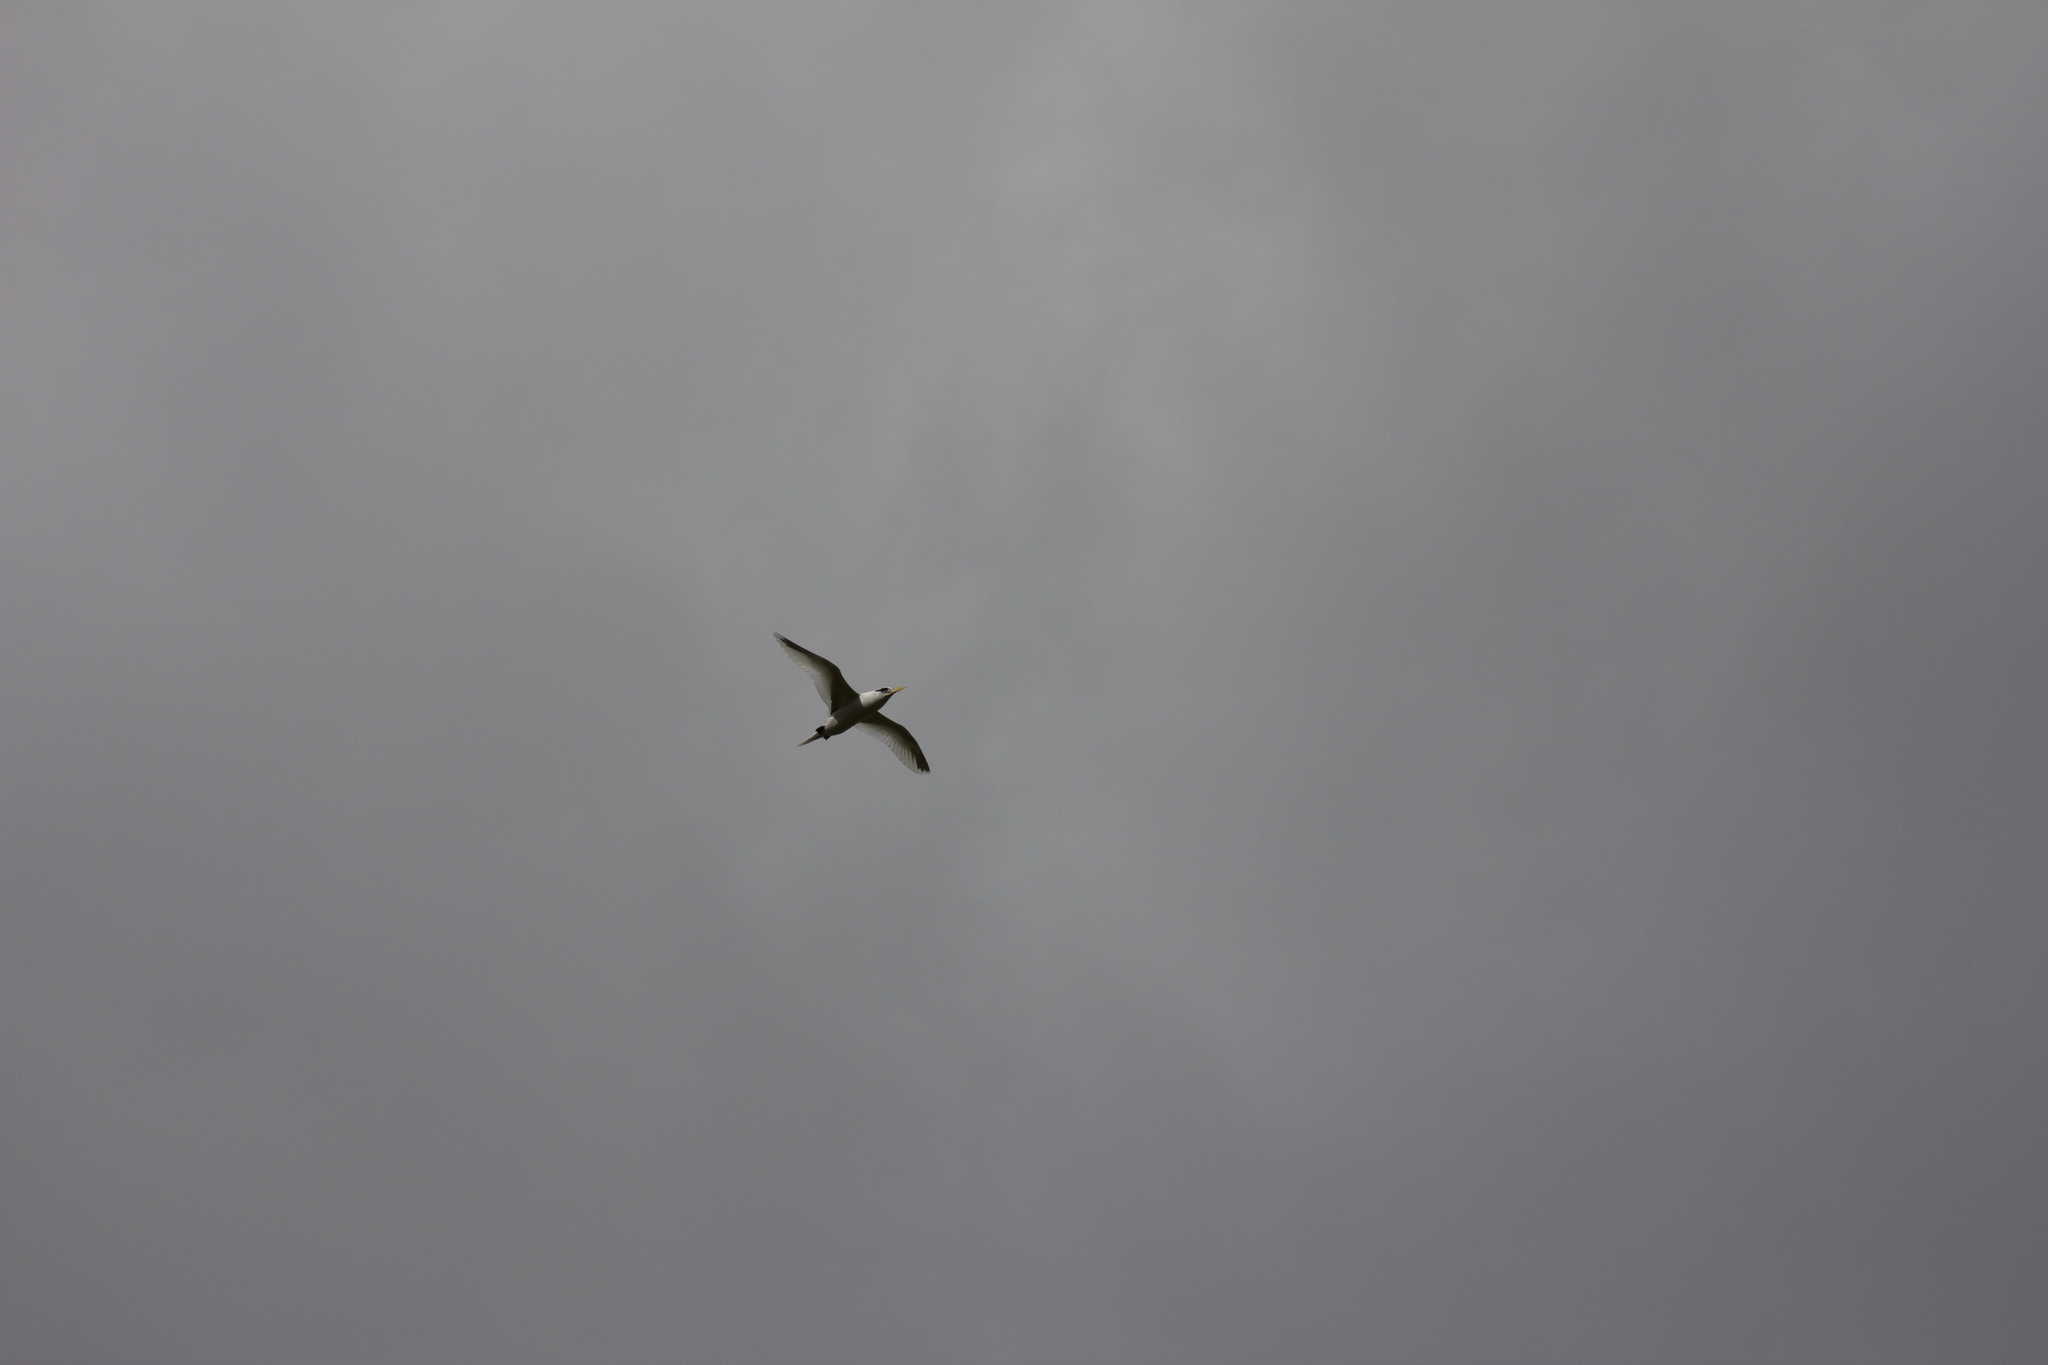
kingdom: Animalia
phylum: Chordata
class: Aves
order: Phaethontiformes
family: Phaethontidae
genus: Phaethon
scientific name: Phaethon lepturus
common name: White-tailed tropicbird
